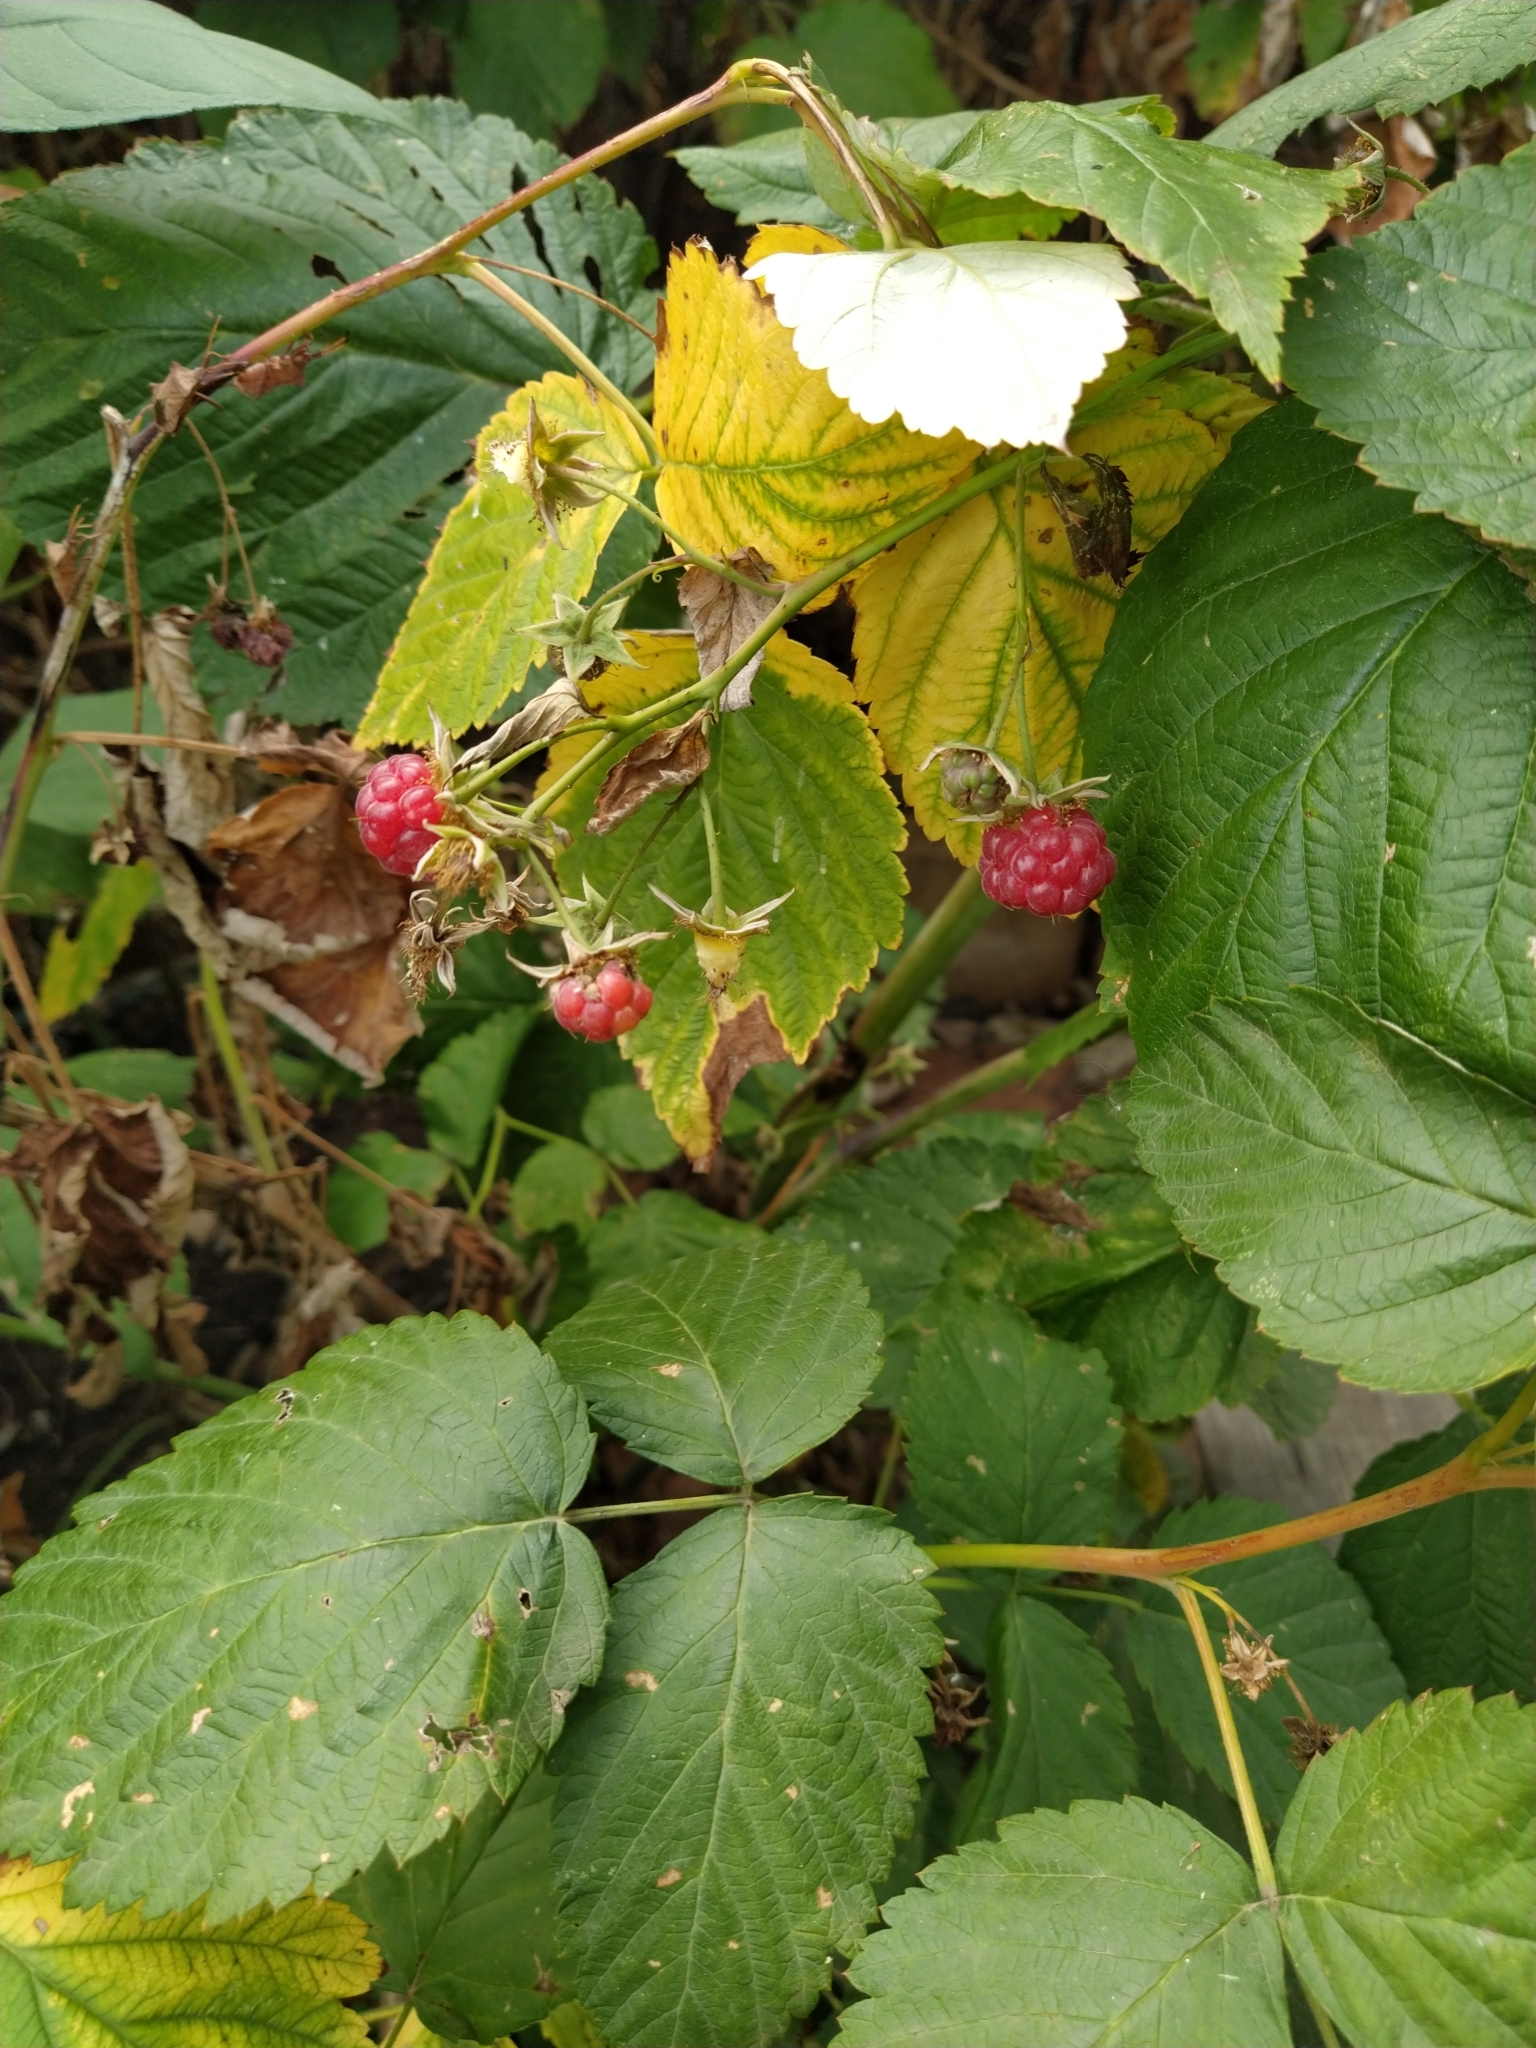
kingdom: Plantae
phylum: Tracheophyta
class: Magnoliopsida
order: Rosales
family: Rosaceae
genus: Rubus
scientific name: Rubus idaeus
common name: Raspberry
